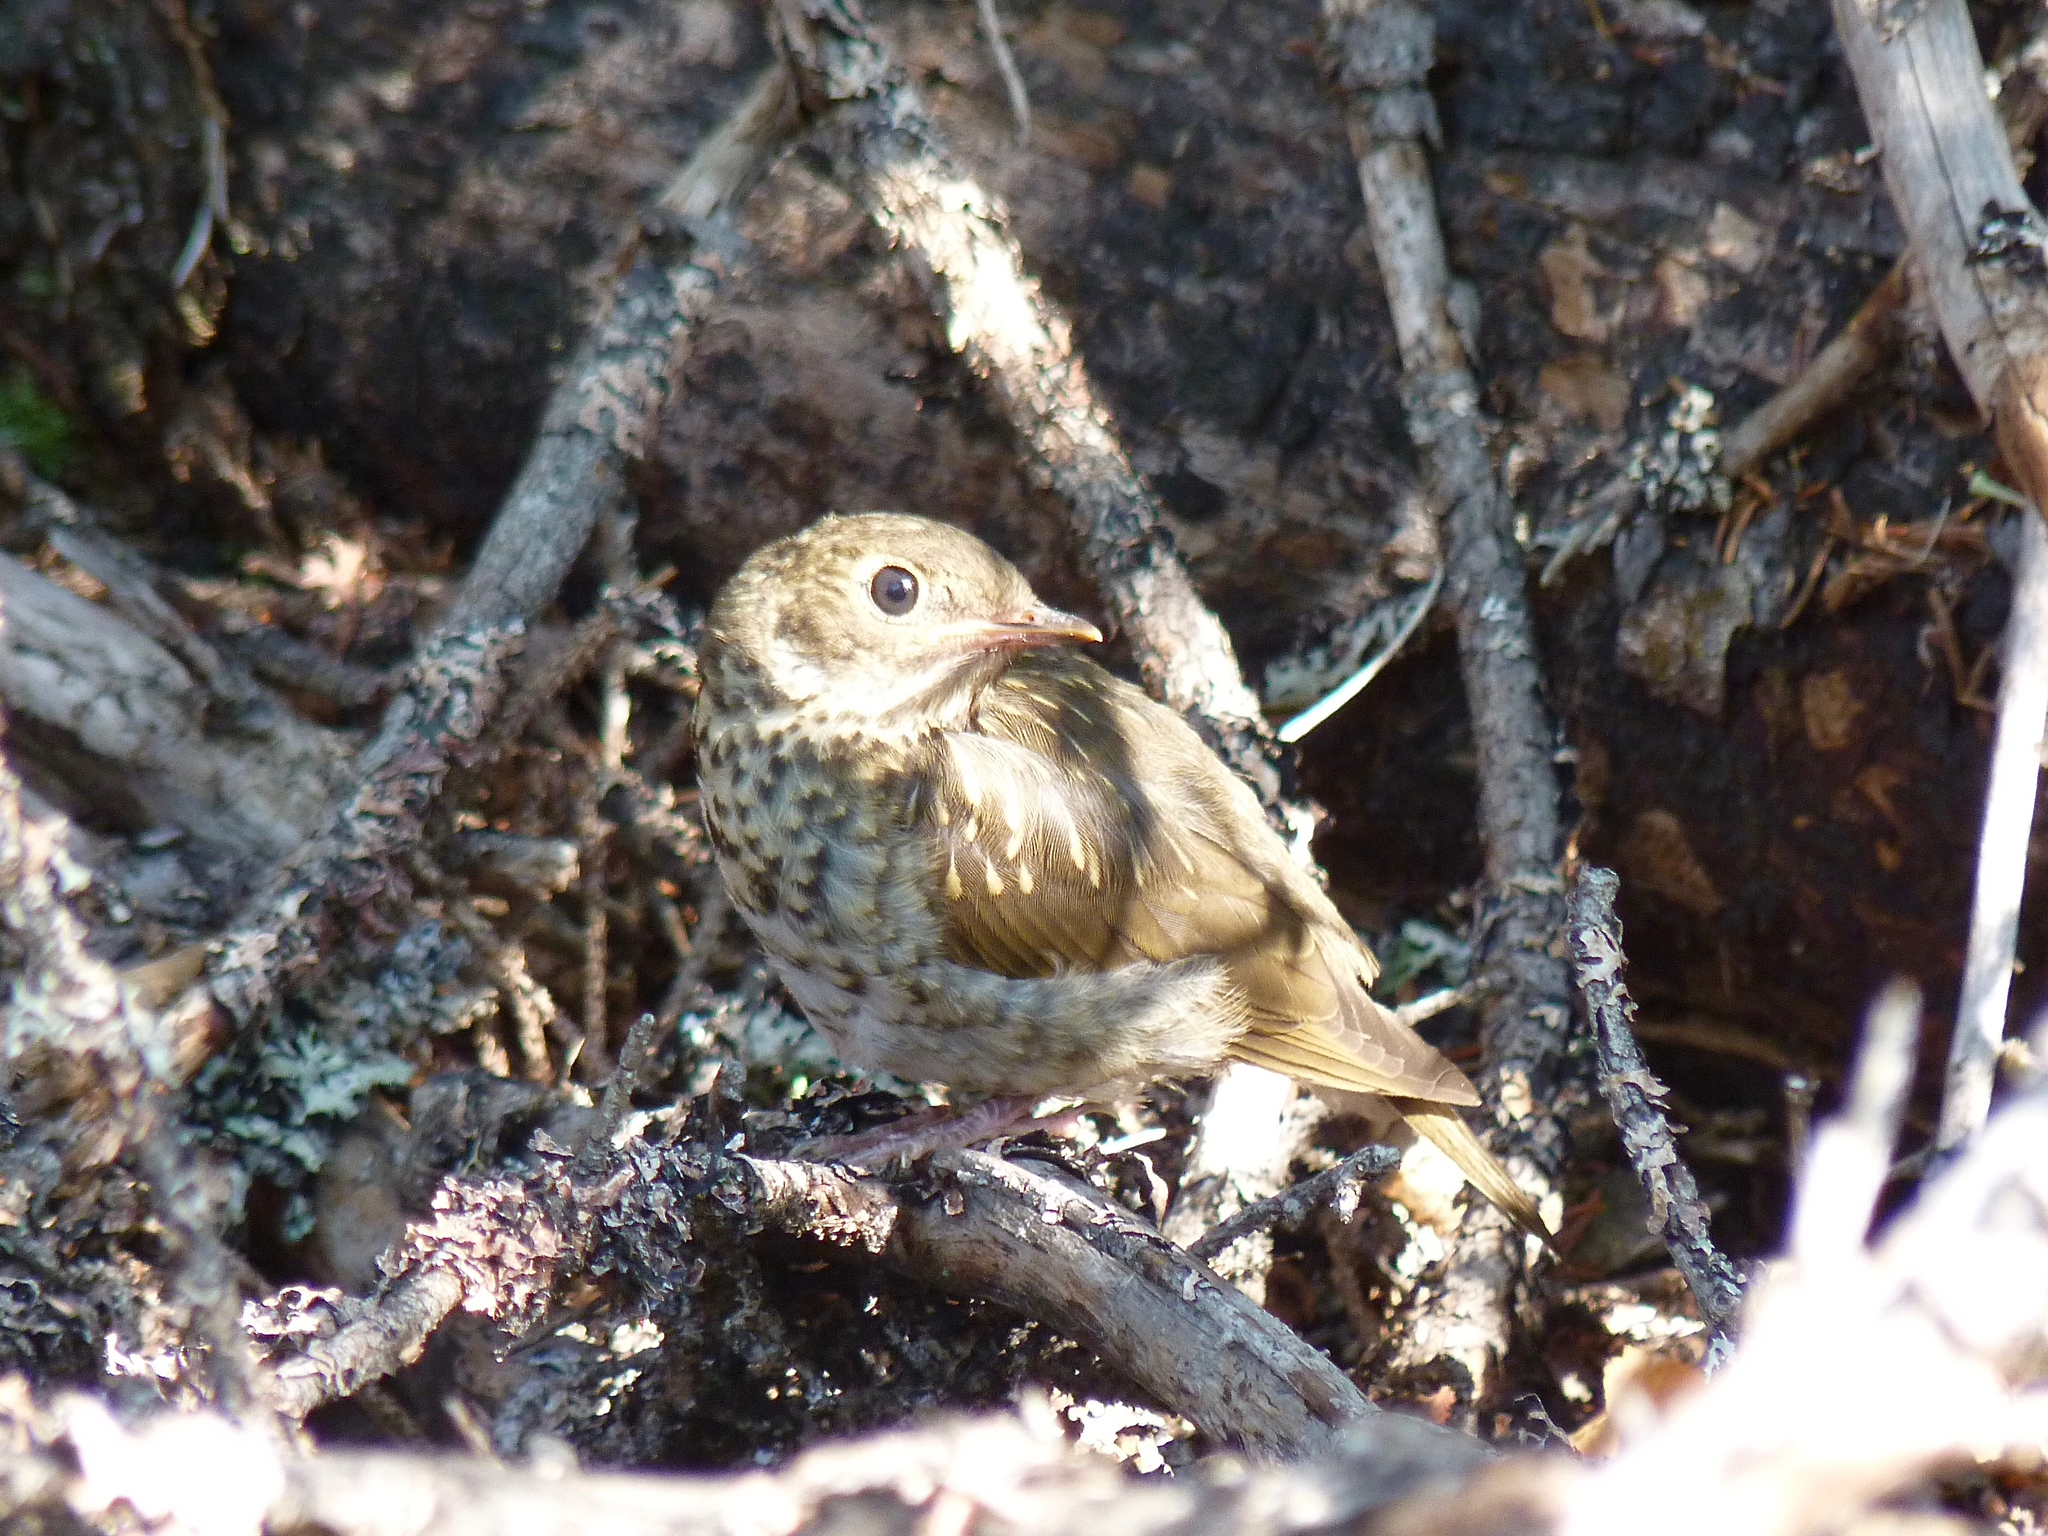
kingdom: Animalia
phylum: Chordata
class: Aves
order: Passeriformes
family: Turdidae
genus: Catharus
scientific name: Catharus guttatus
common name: Hermit thrush
